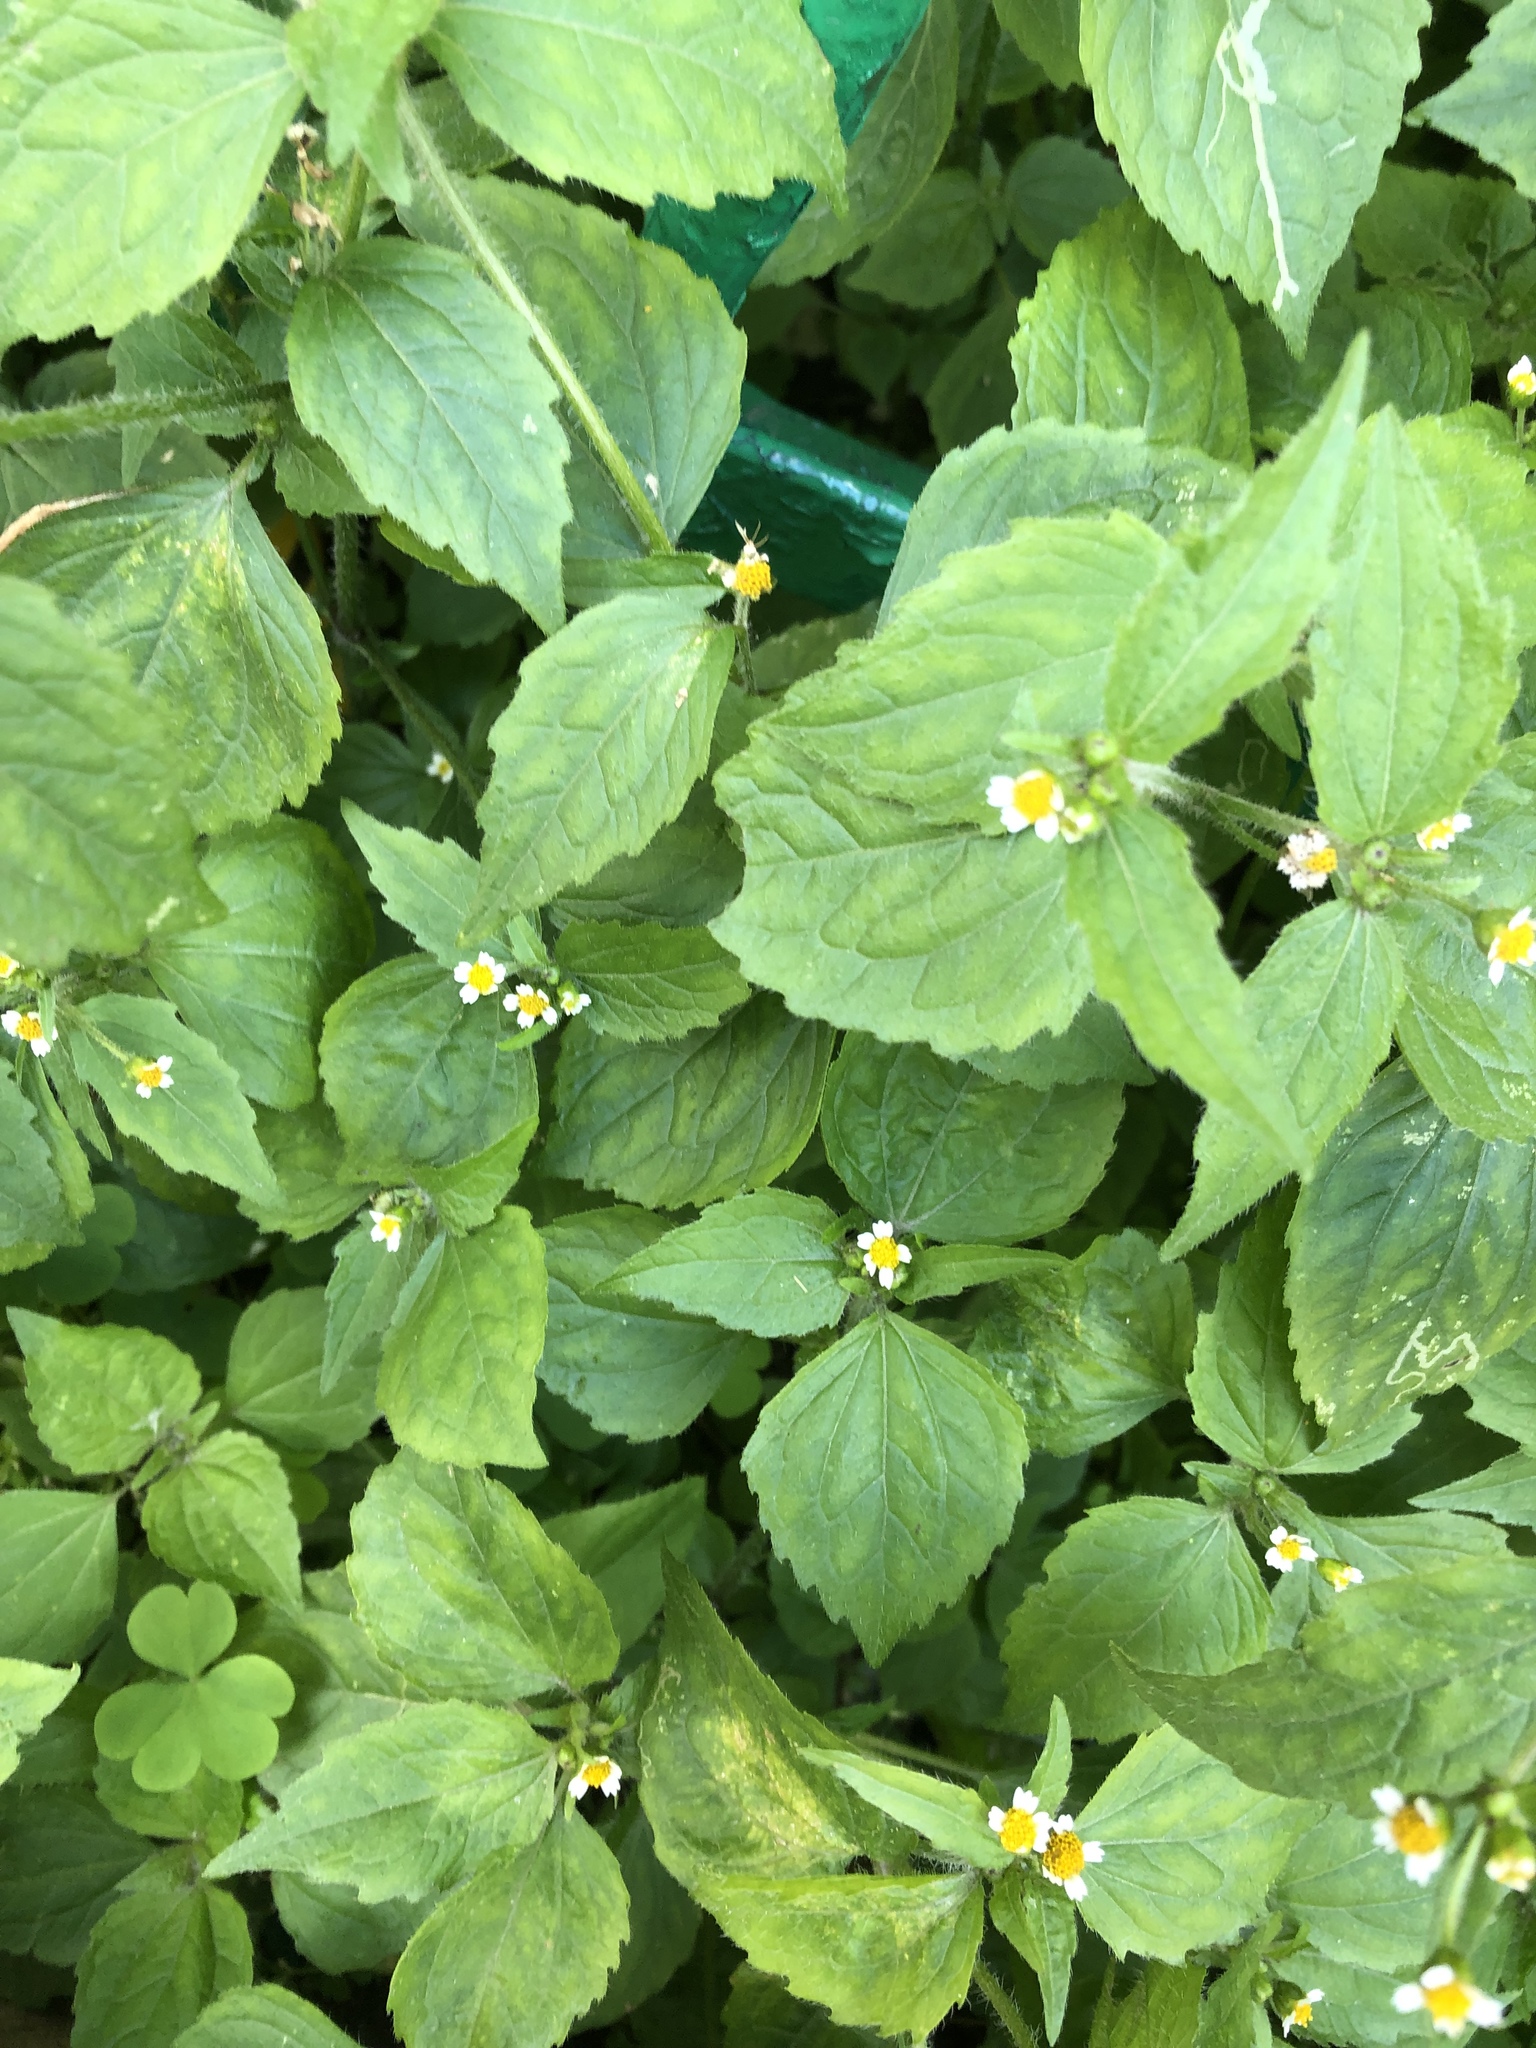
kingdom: Plantae
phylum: Tracheophyta
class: Magnoliopsida
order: Asterales
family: Asteraceae
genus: Galinsoga
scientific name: Galinsoga quadriradiata
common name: Shaggy soldier
